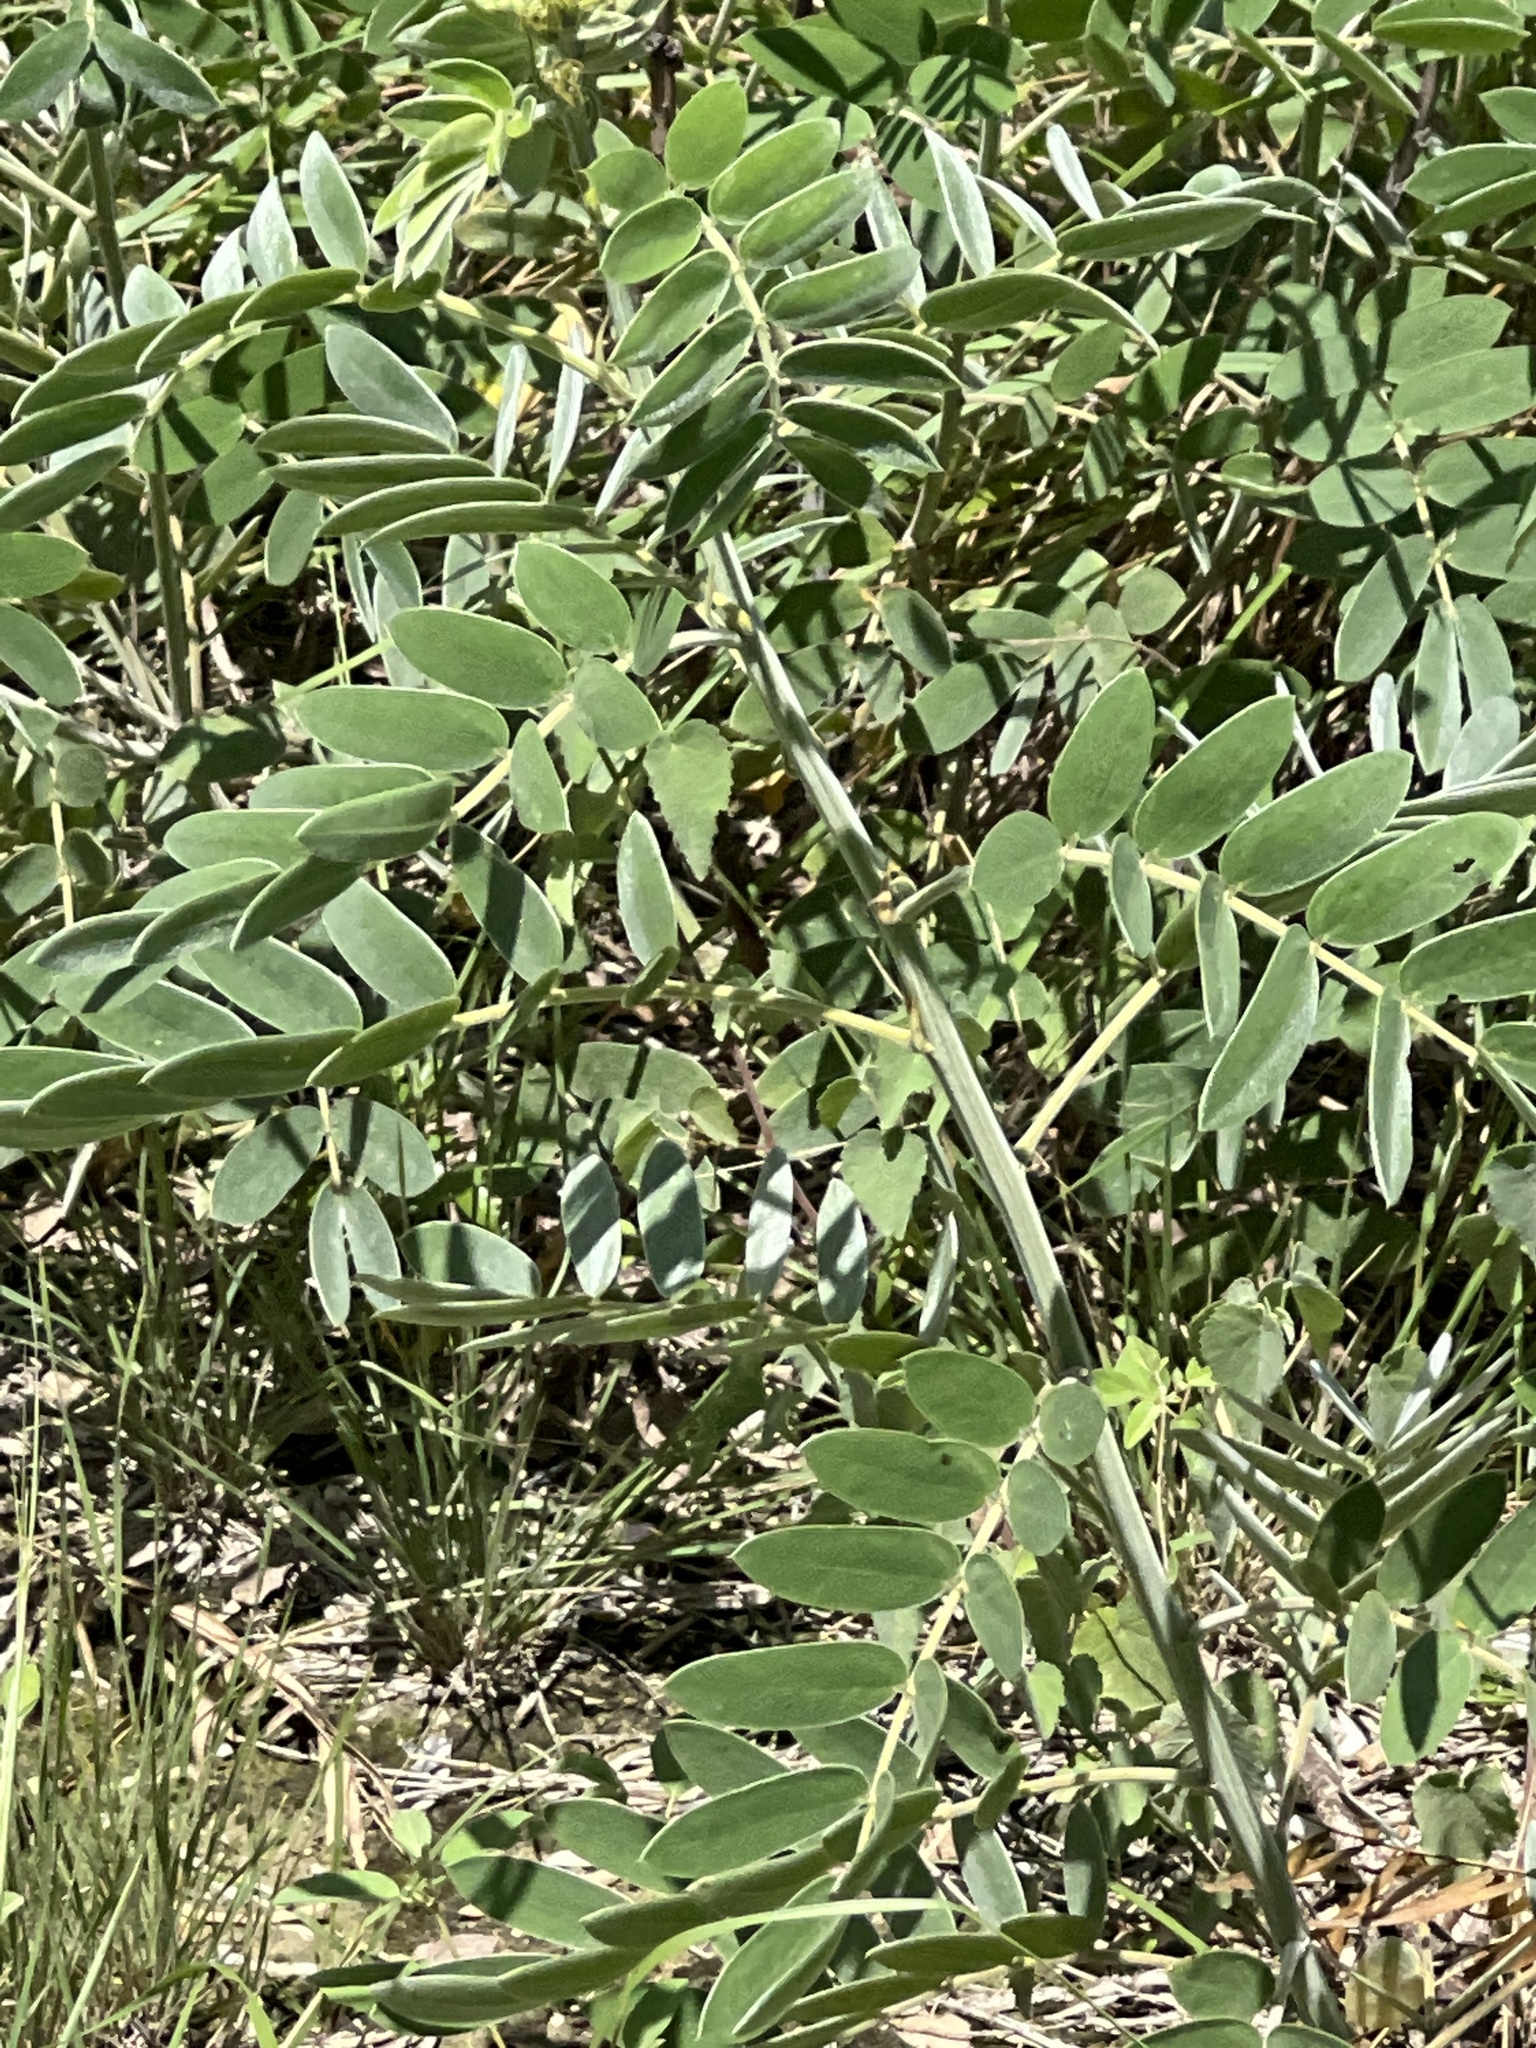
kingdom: Plantae
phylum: Tracheophyta
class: Magnoliopsida
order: Fabales
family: Fabaceae
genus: Senna
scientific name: Senna lindheimeriana
